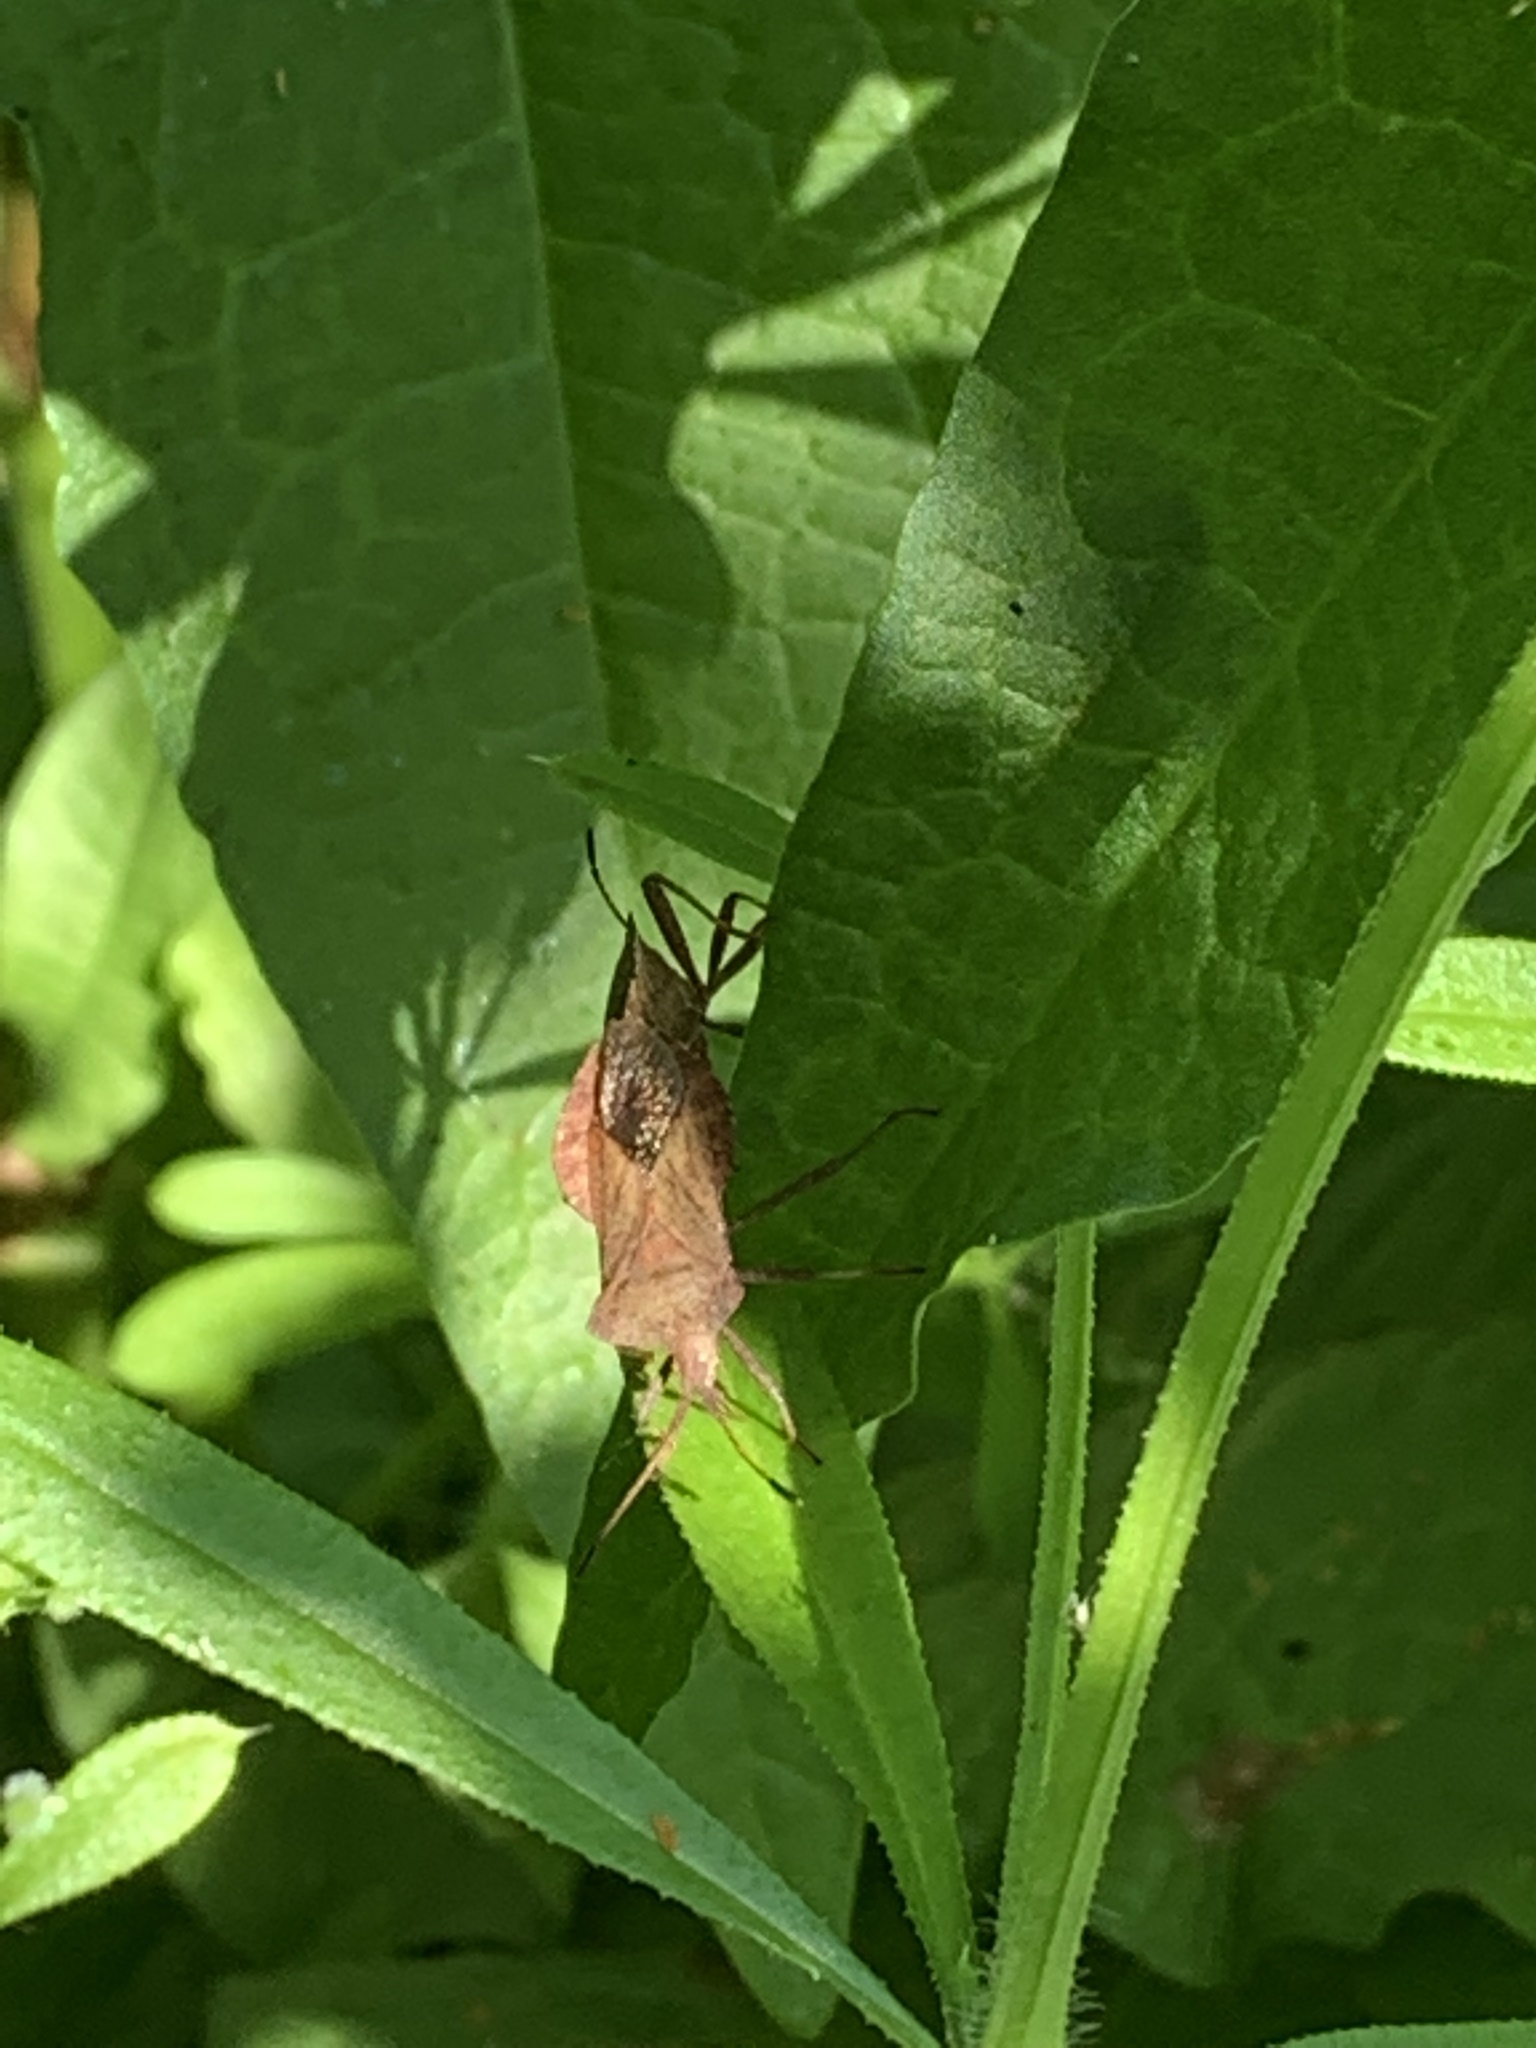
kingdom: Animalia
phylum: Arthropoda
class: Insecta
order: Hemiptera
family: Coreidae
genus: Coreus
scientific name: Coreus marginatus
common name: Dock bug
